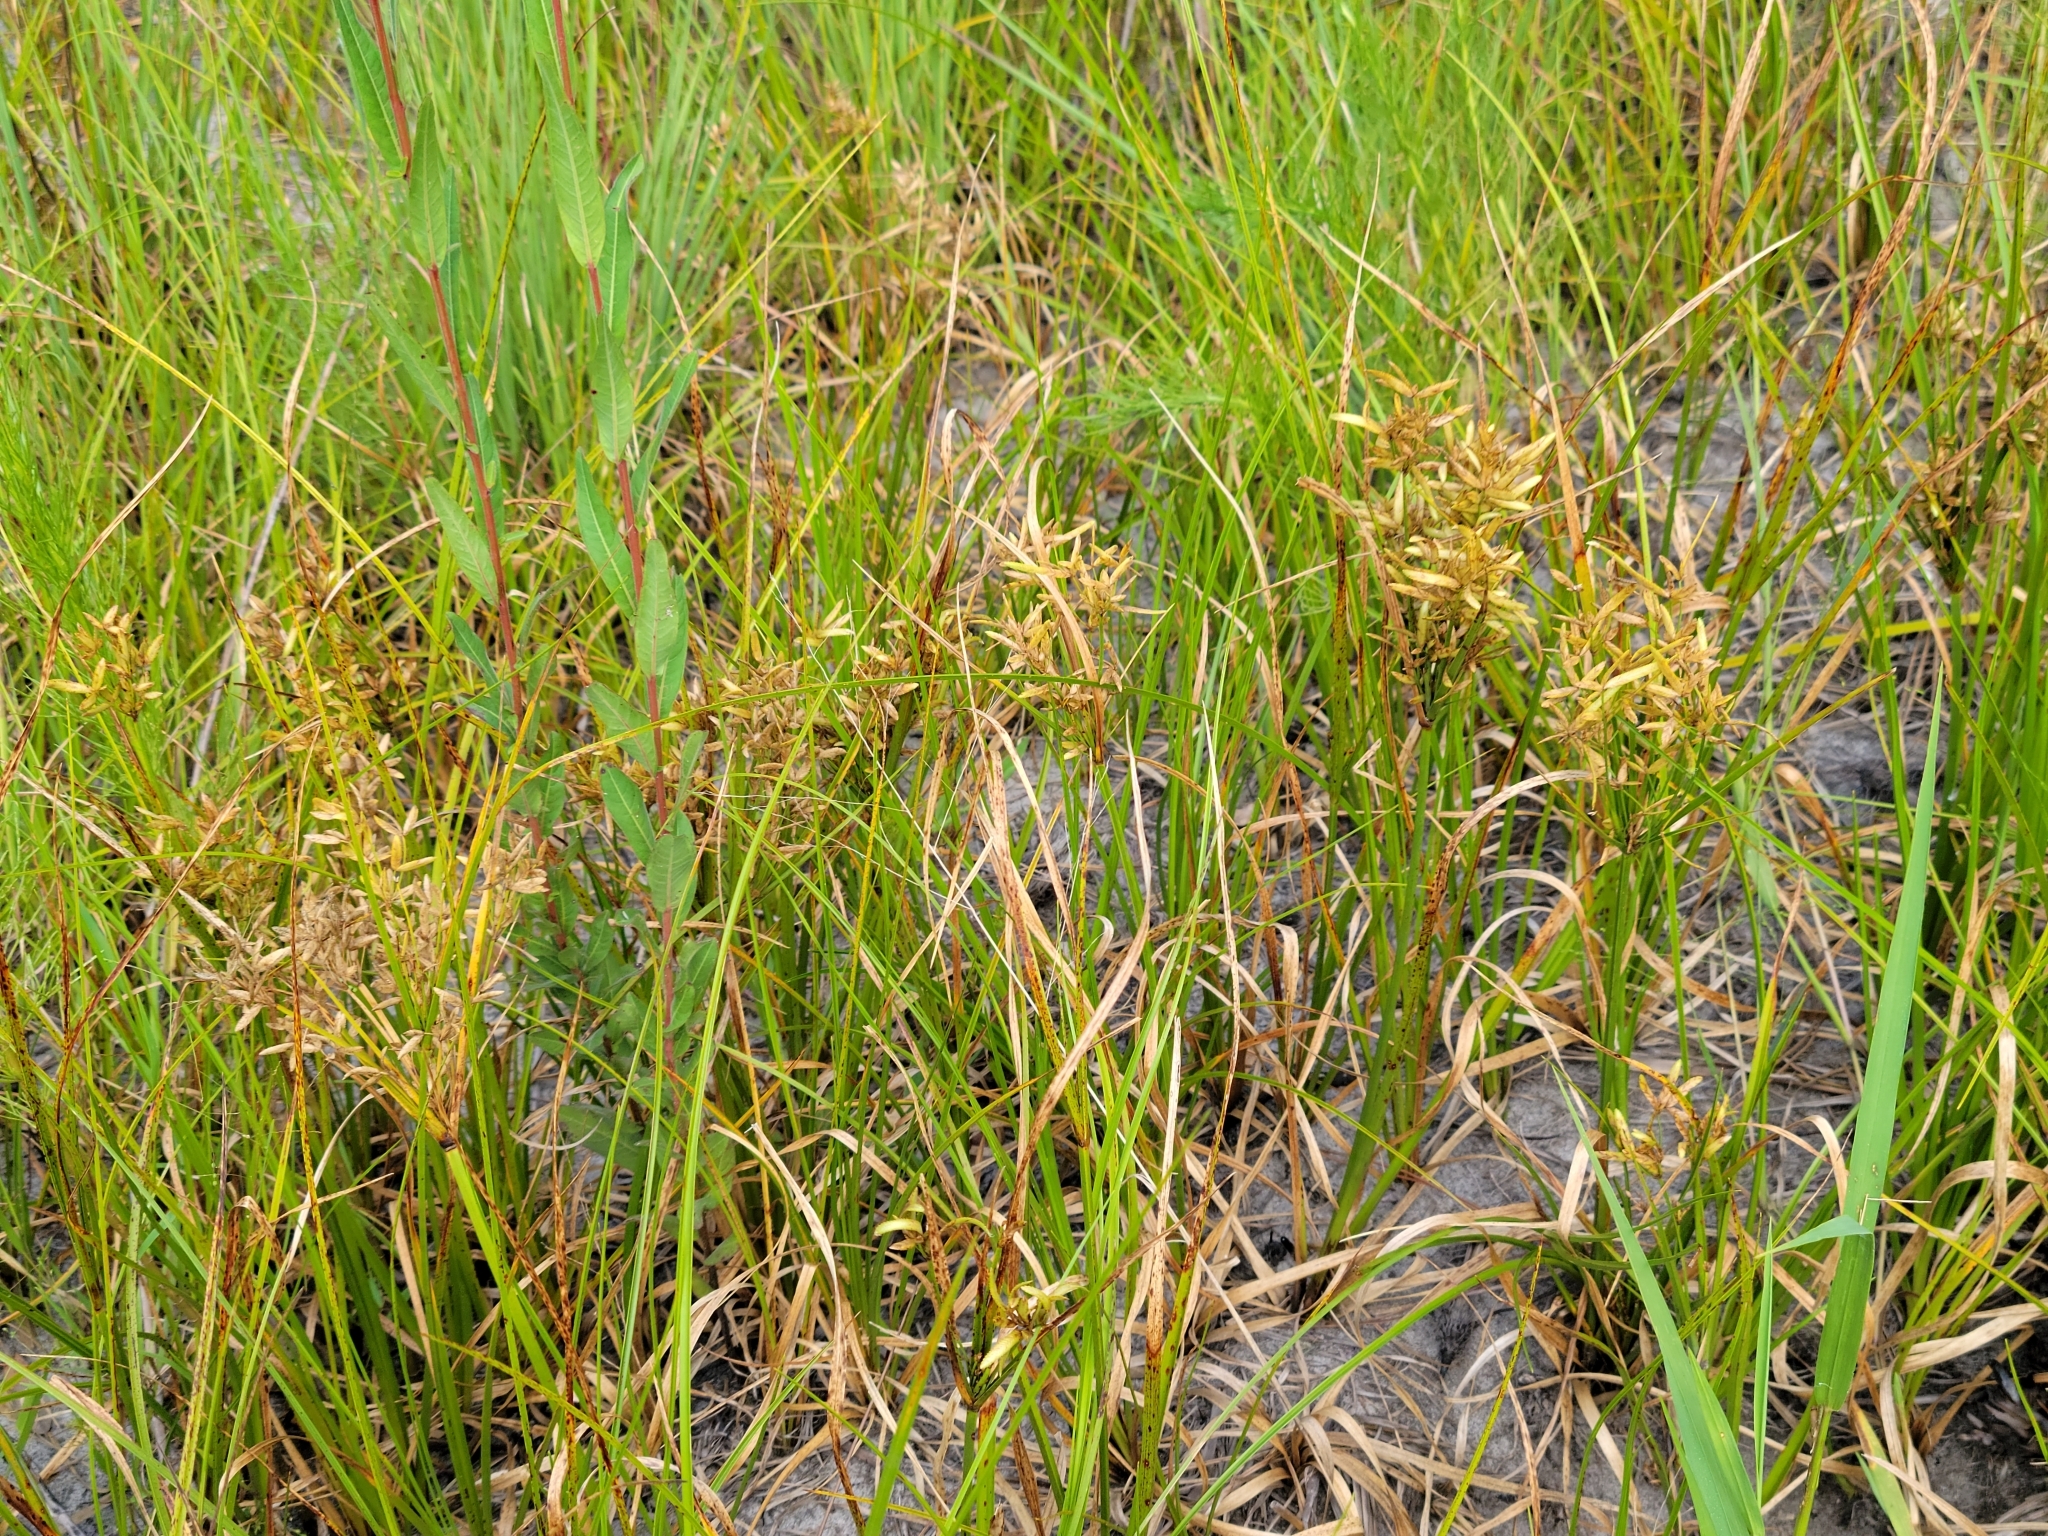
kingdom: Plantae
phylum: Tracheophyta
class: Liliopsida
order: Poales
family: Cyperaceae
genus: Cyperus
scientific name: Cyperus lecontei
